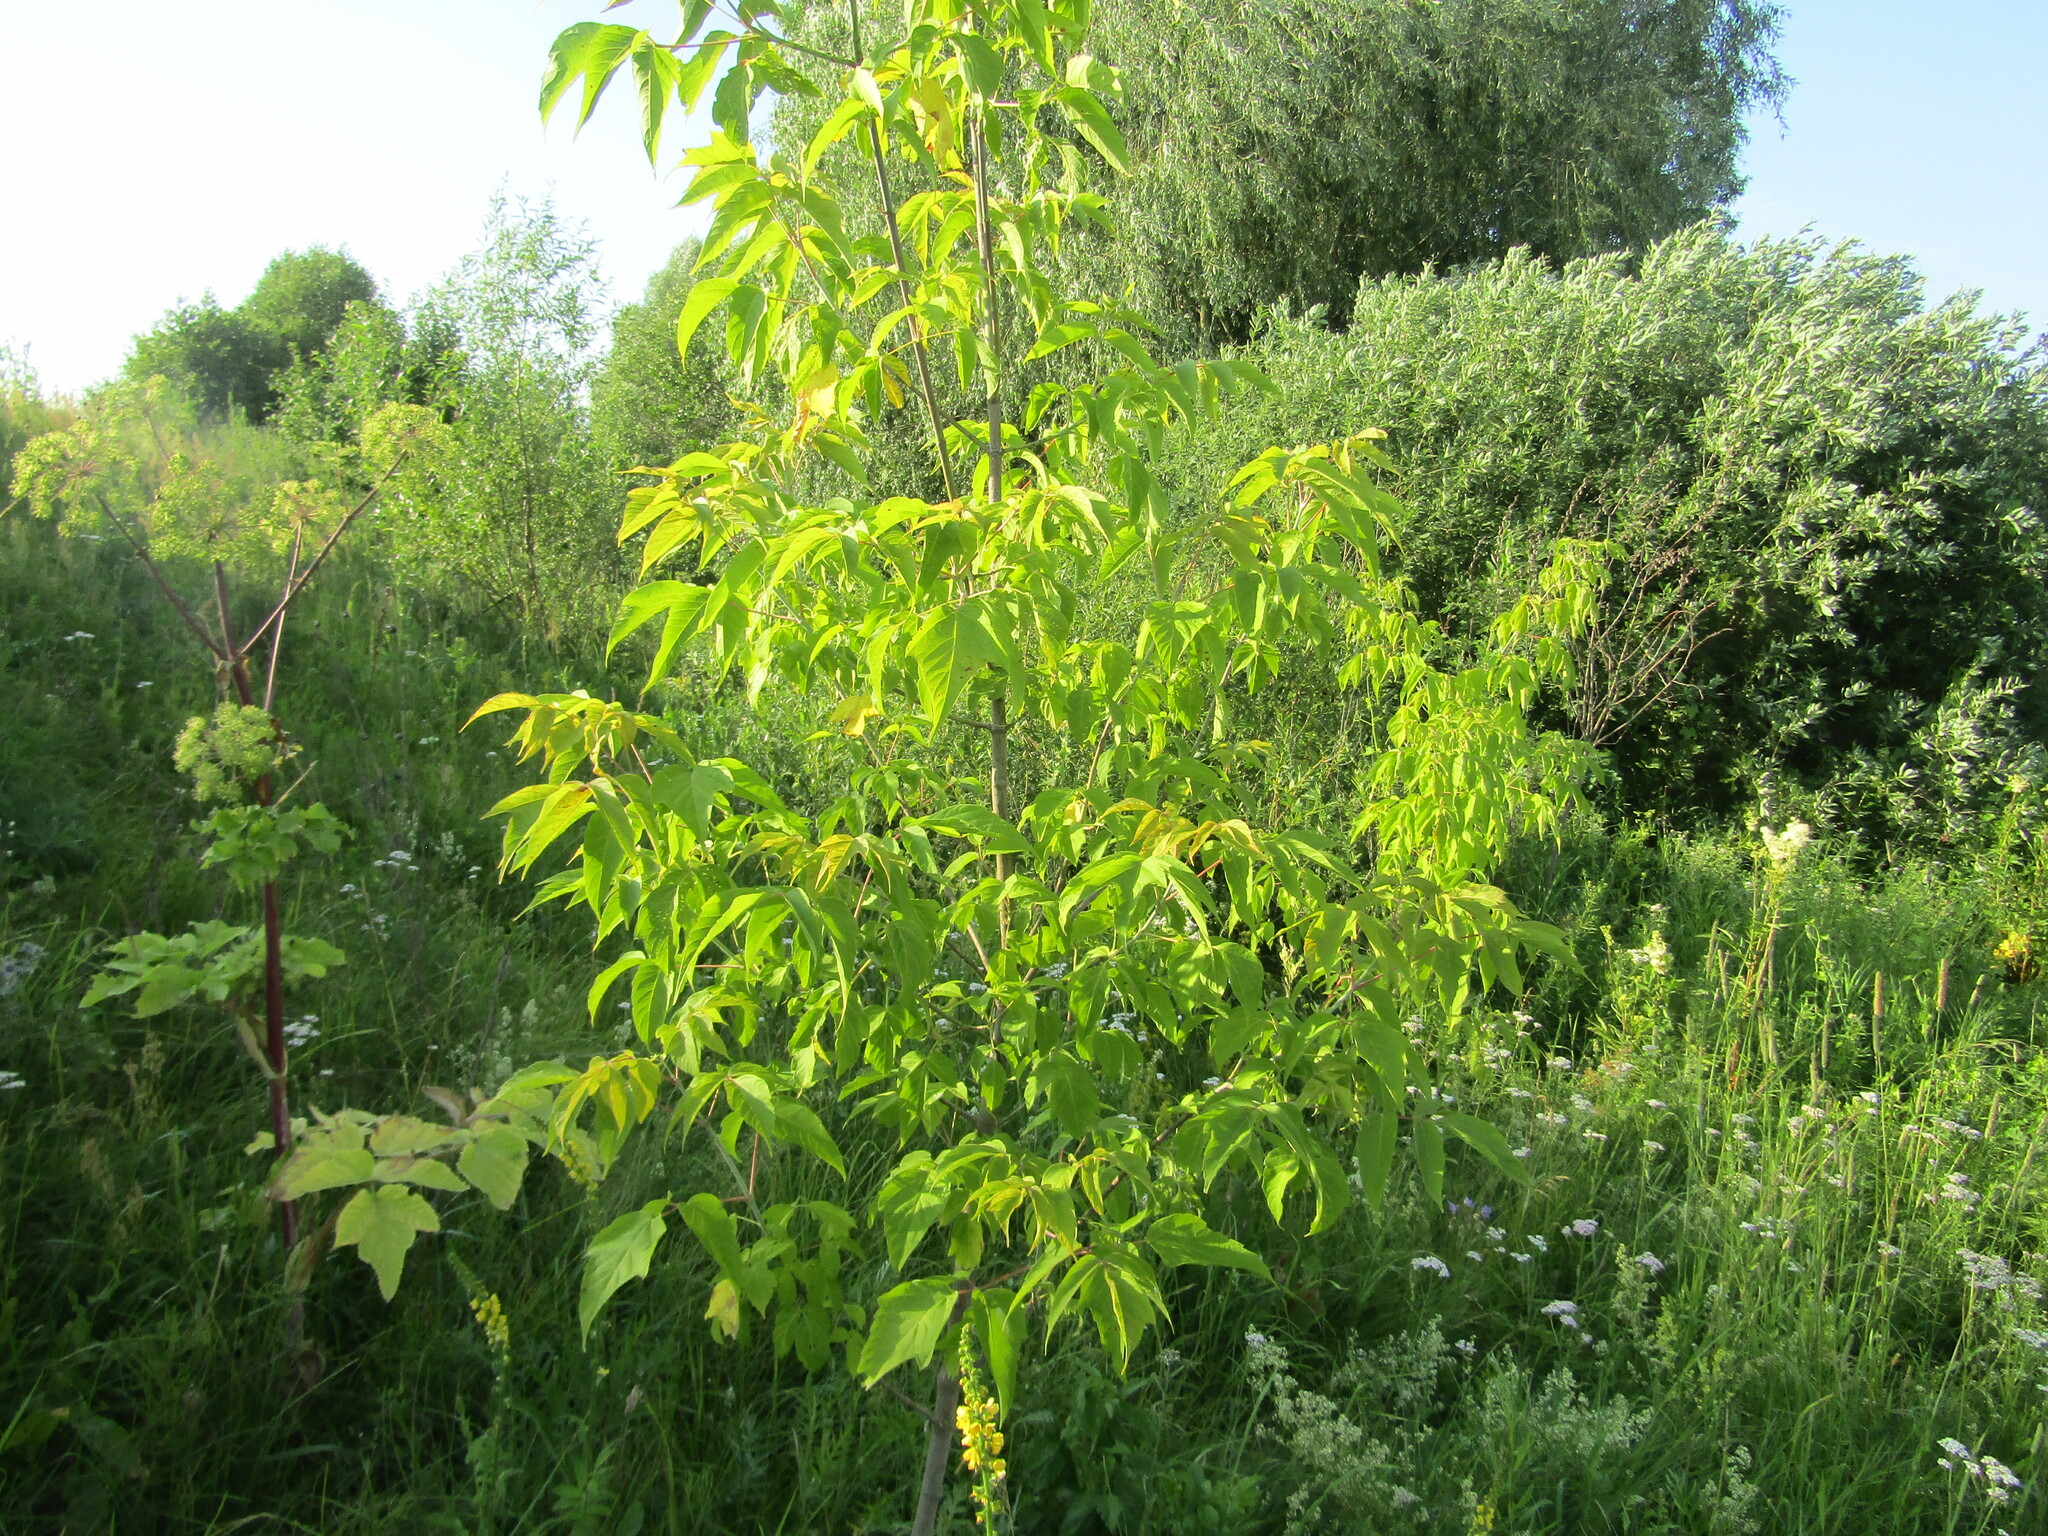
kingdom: Plantae
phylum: Tracheophyta
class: Magnoliopsida
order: Sapindales
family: Sapindaceae
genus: Acer
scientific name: Acer negundo
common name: Ashleaf maple
